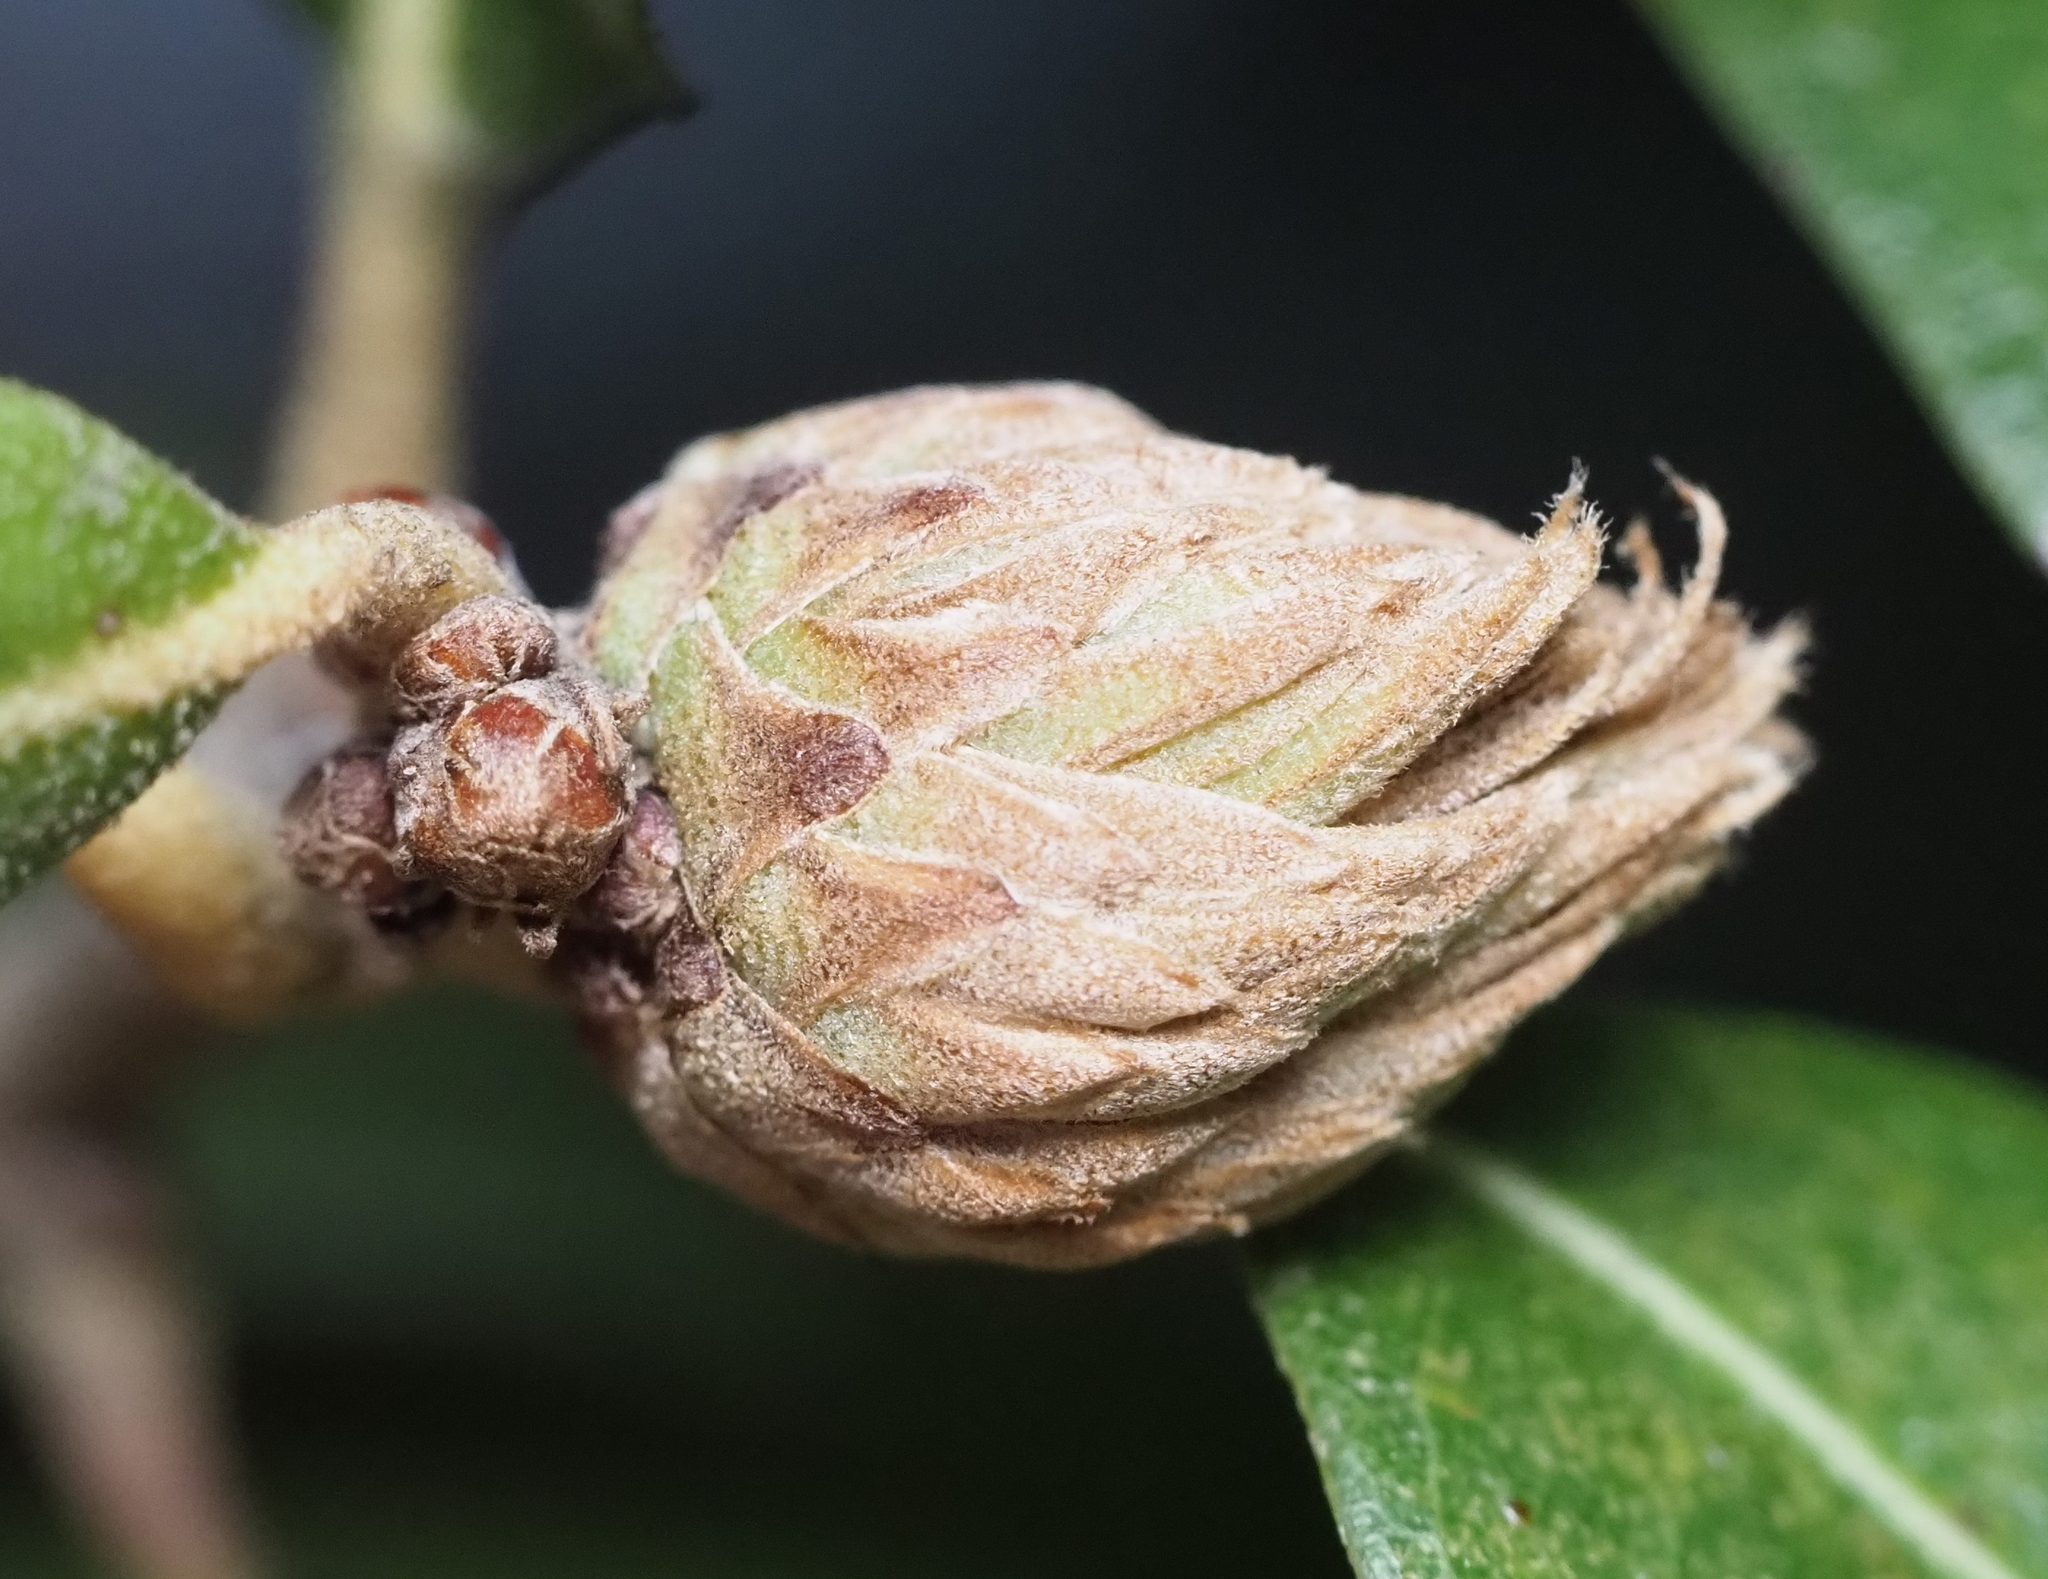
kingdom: Animalia
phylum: Arthropoda
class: Insecta
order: Hymenoptera
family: Cynipidae
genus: Andricus
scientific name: Andricus quercusfoliatus
